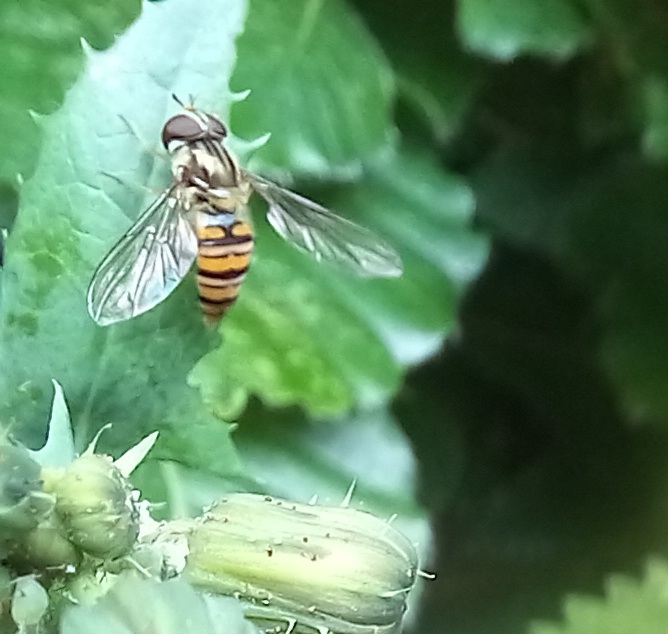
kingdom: Animalia
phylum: Arthropoda
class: Insecta
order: Diptera
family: Syrphidae
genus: Episyrphus
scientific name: Episyrphus balteatus
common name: Marmalade hoverfly
